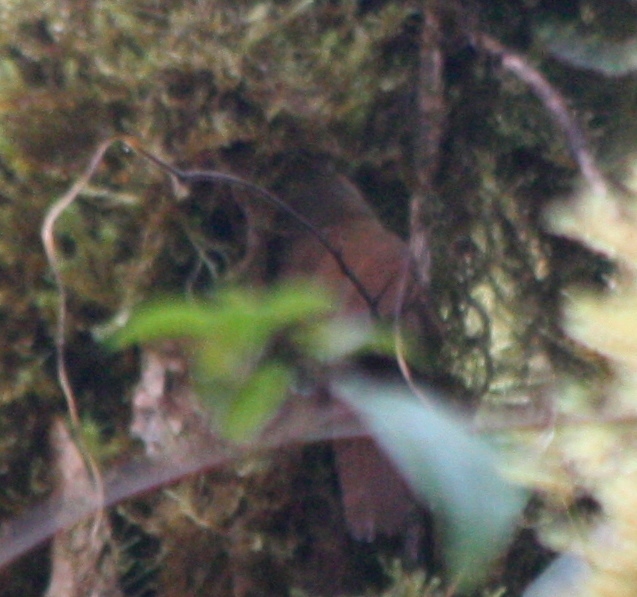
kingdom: Animalia
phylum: Chordata
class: Aves
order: Passeriformes
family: Furnariidae
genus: Dendrocincla
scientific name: Dendrocincla tyrannina
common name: Tyrannine woodcreeper
